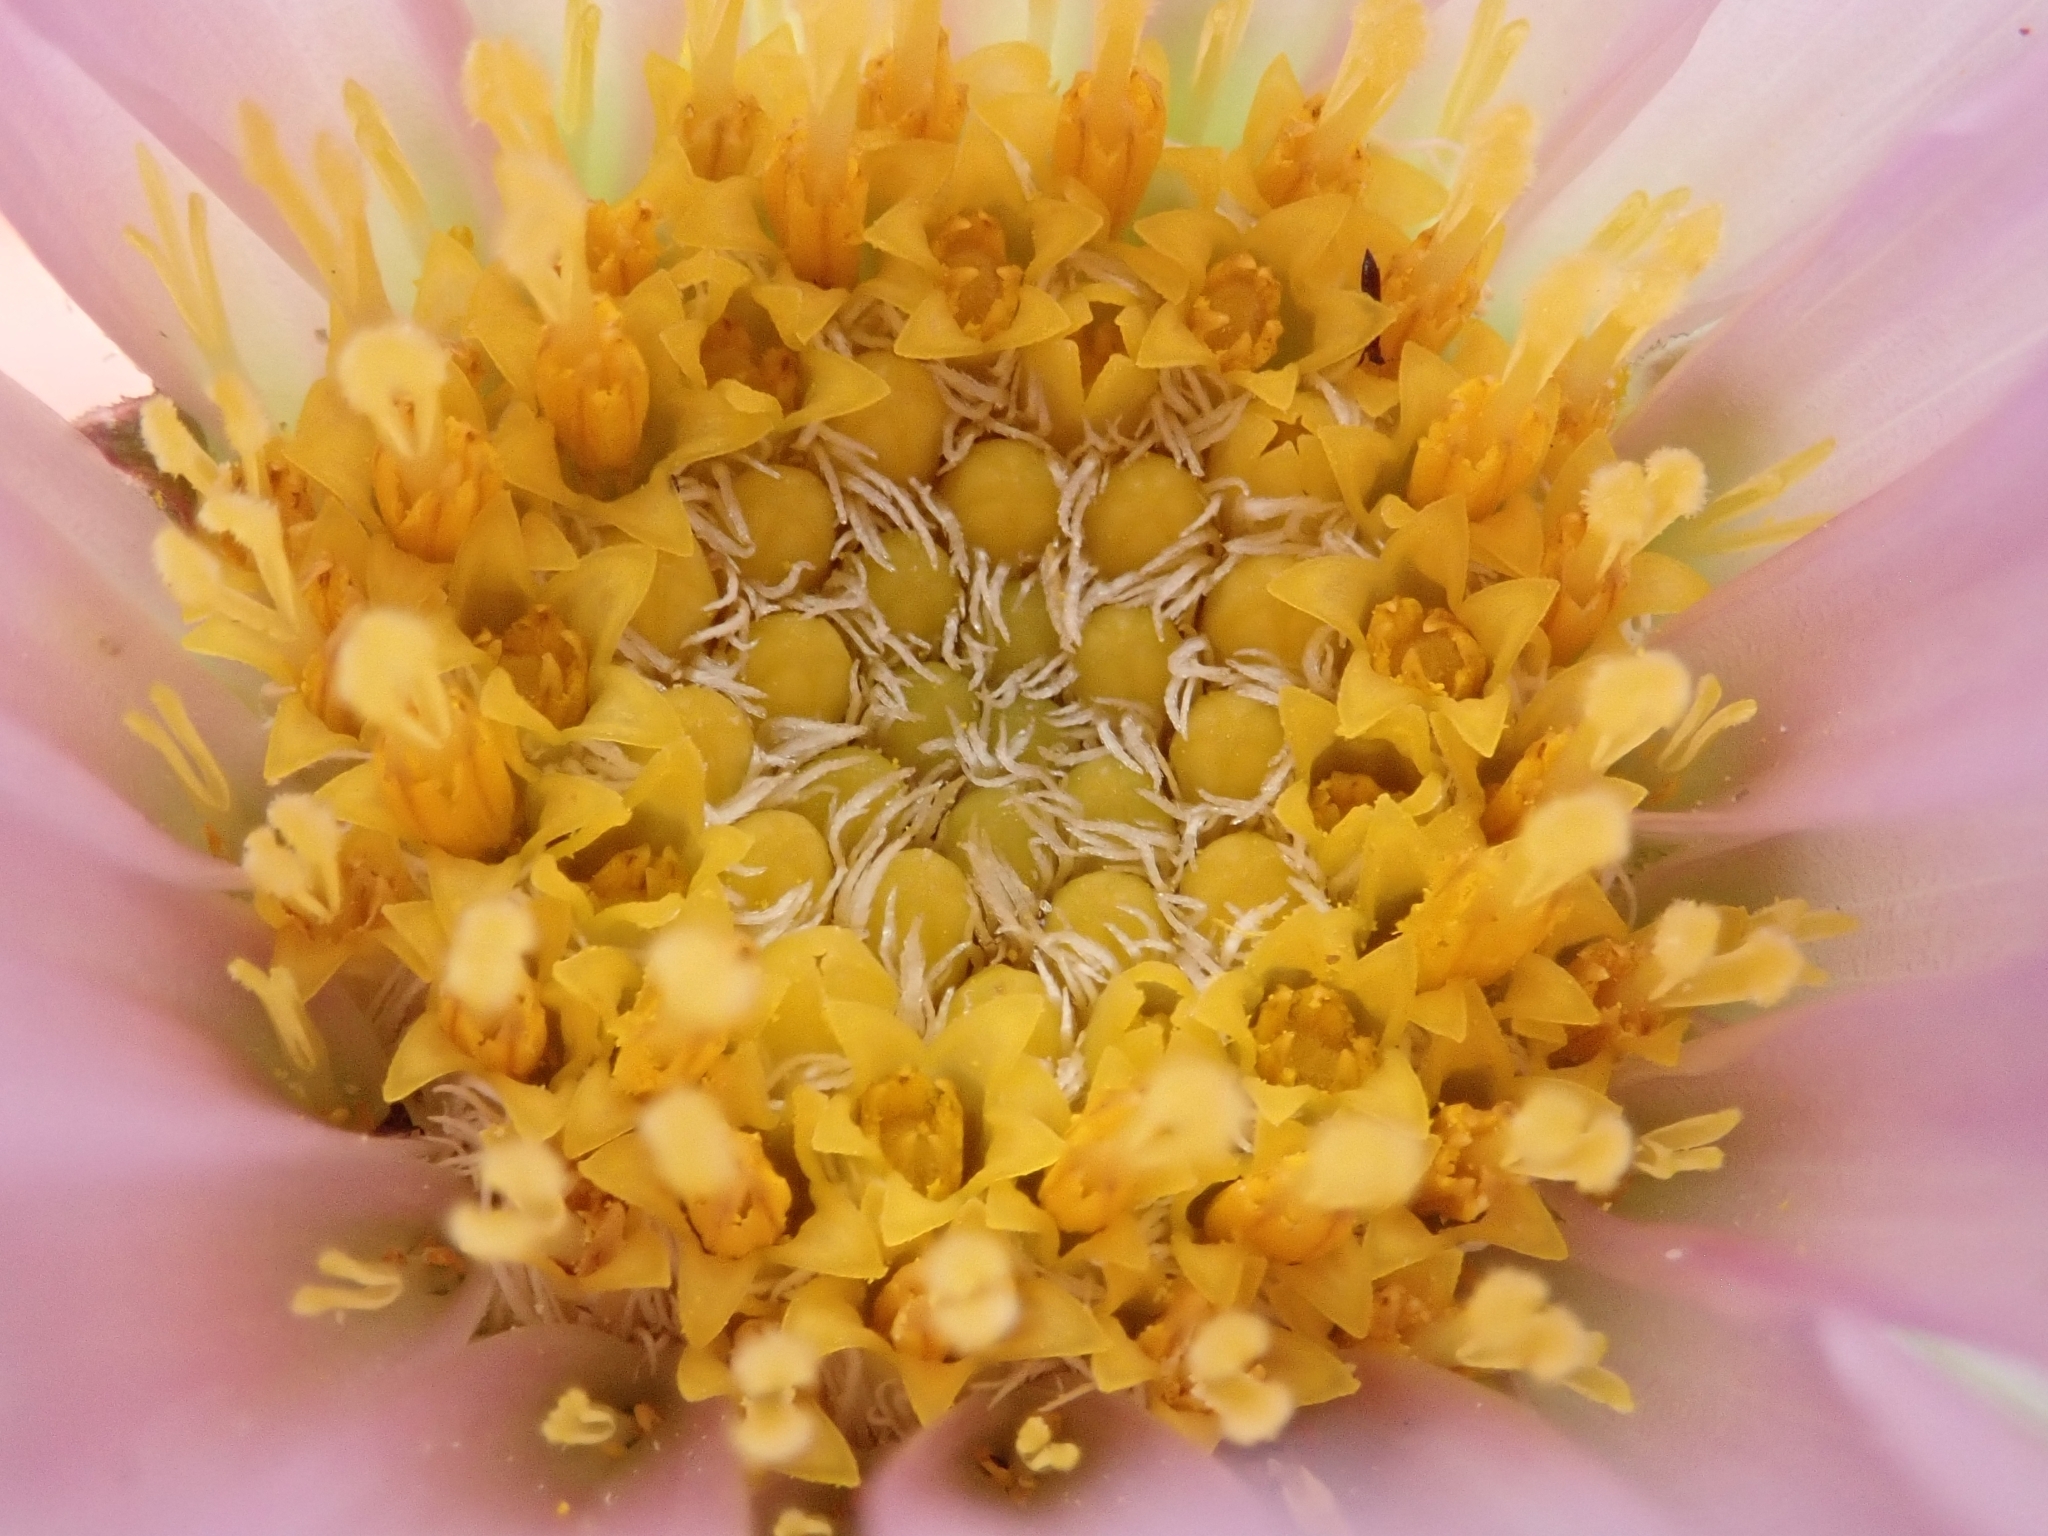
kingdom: Plantae
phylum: Tracheophyta
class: Magnoliopsida
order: Asterales
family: Asteraceae
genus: Xylorhiza
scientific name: Xylorhiza orcuttii
